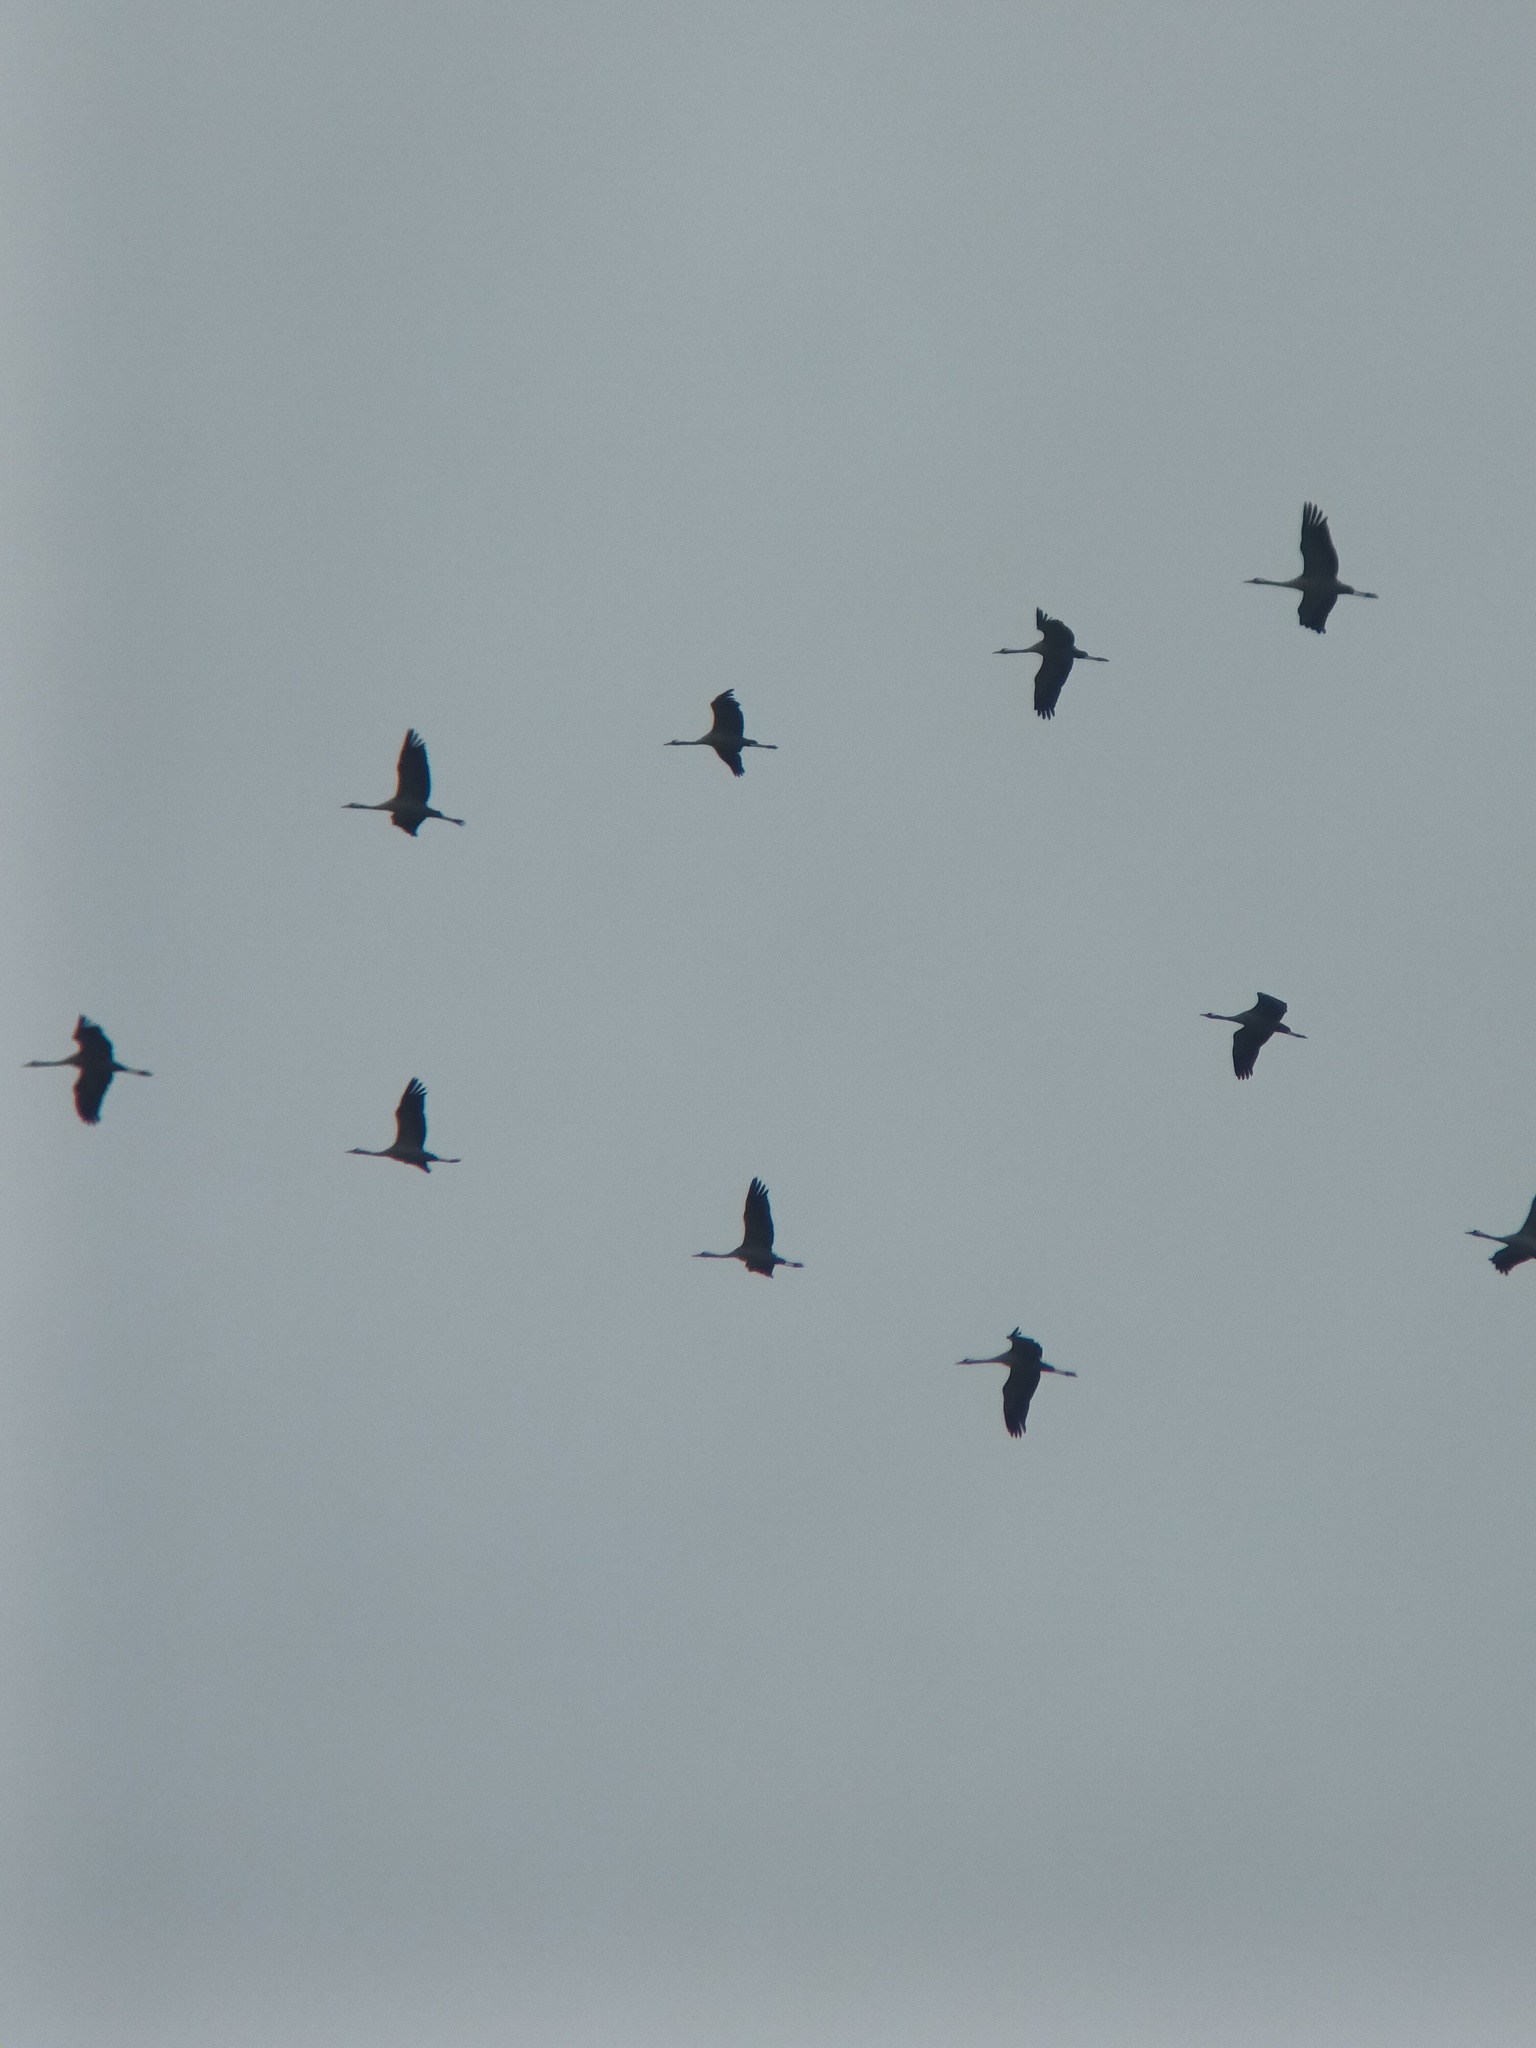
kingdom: Animalia
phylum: Chordata
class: Aves
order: Gruiformes
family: Gruidae
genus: Grus
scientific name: Grus grus
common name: Common crane
